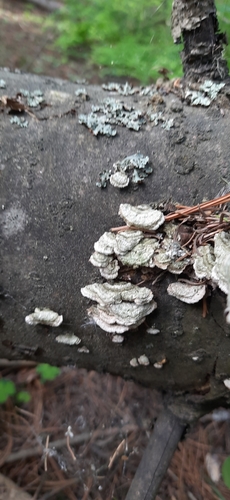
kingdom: Fungi
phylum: Basidiomycota
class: Agaricomycetes
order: Hymenochaetales
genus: Trichaptum
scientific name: Trichaptum abietinum
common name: Purplepore bracket
